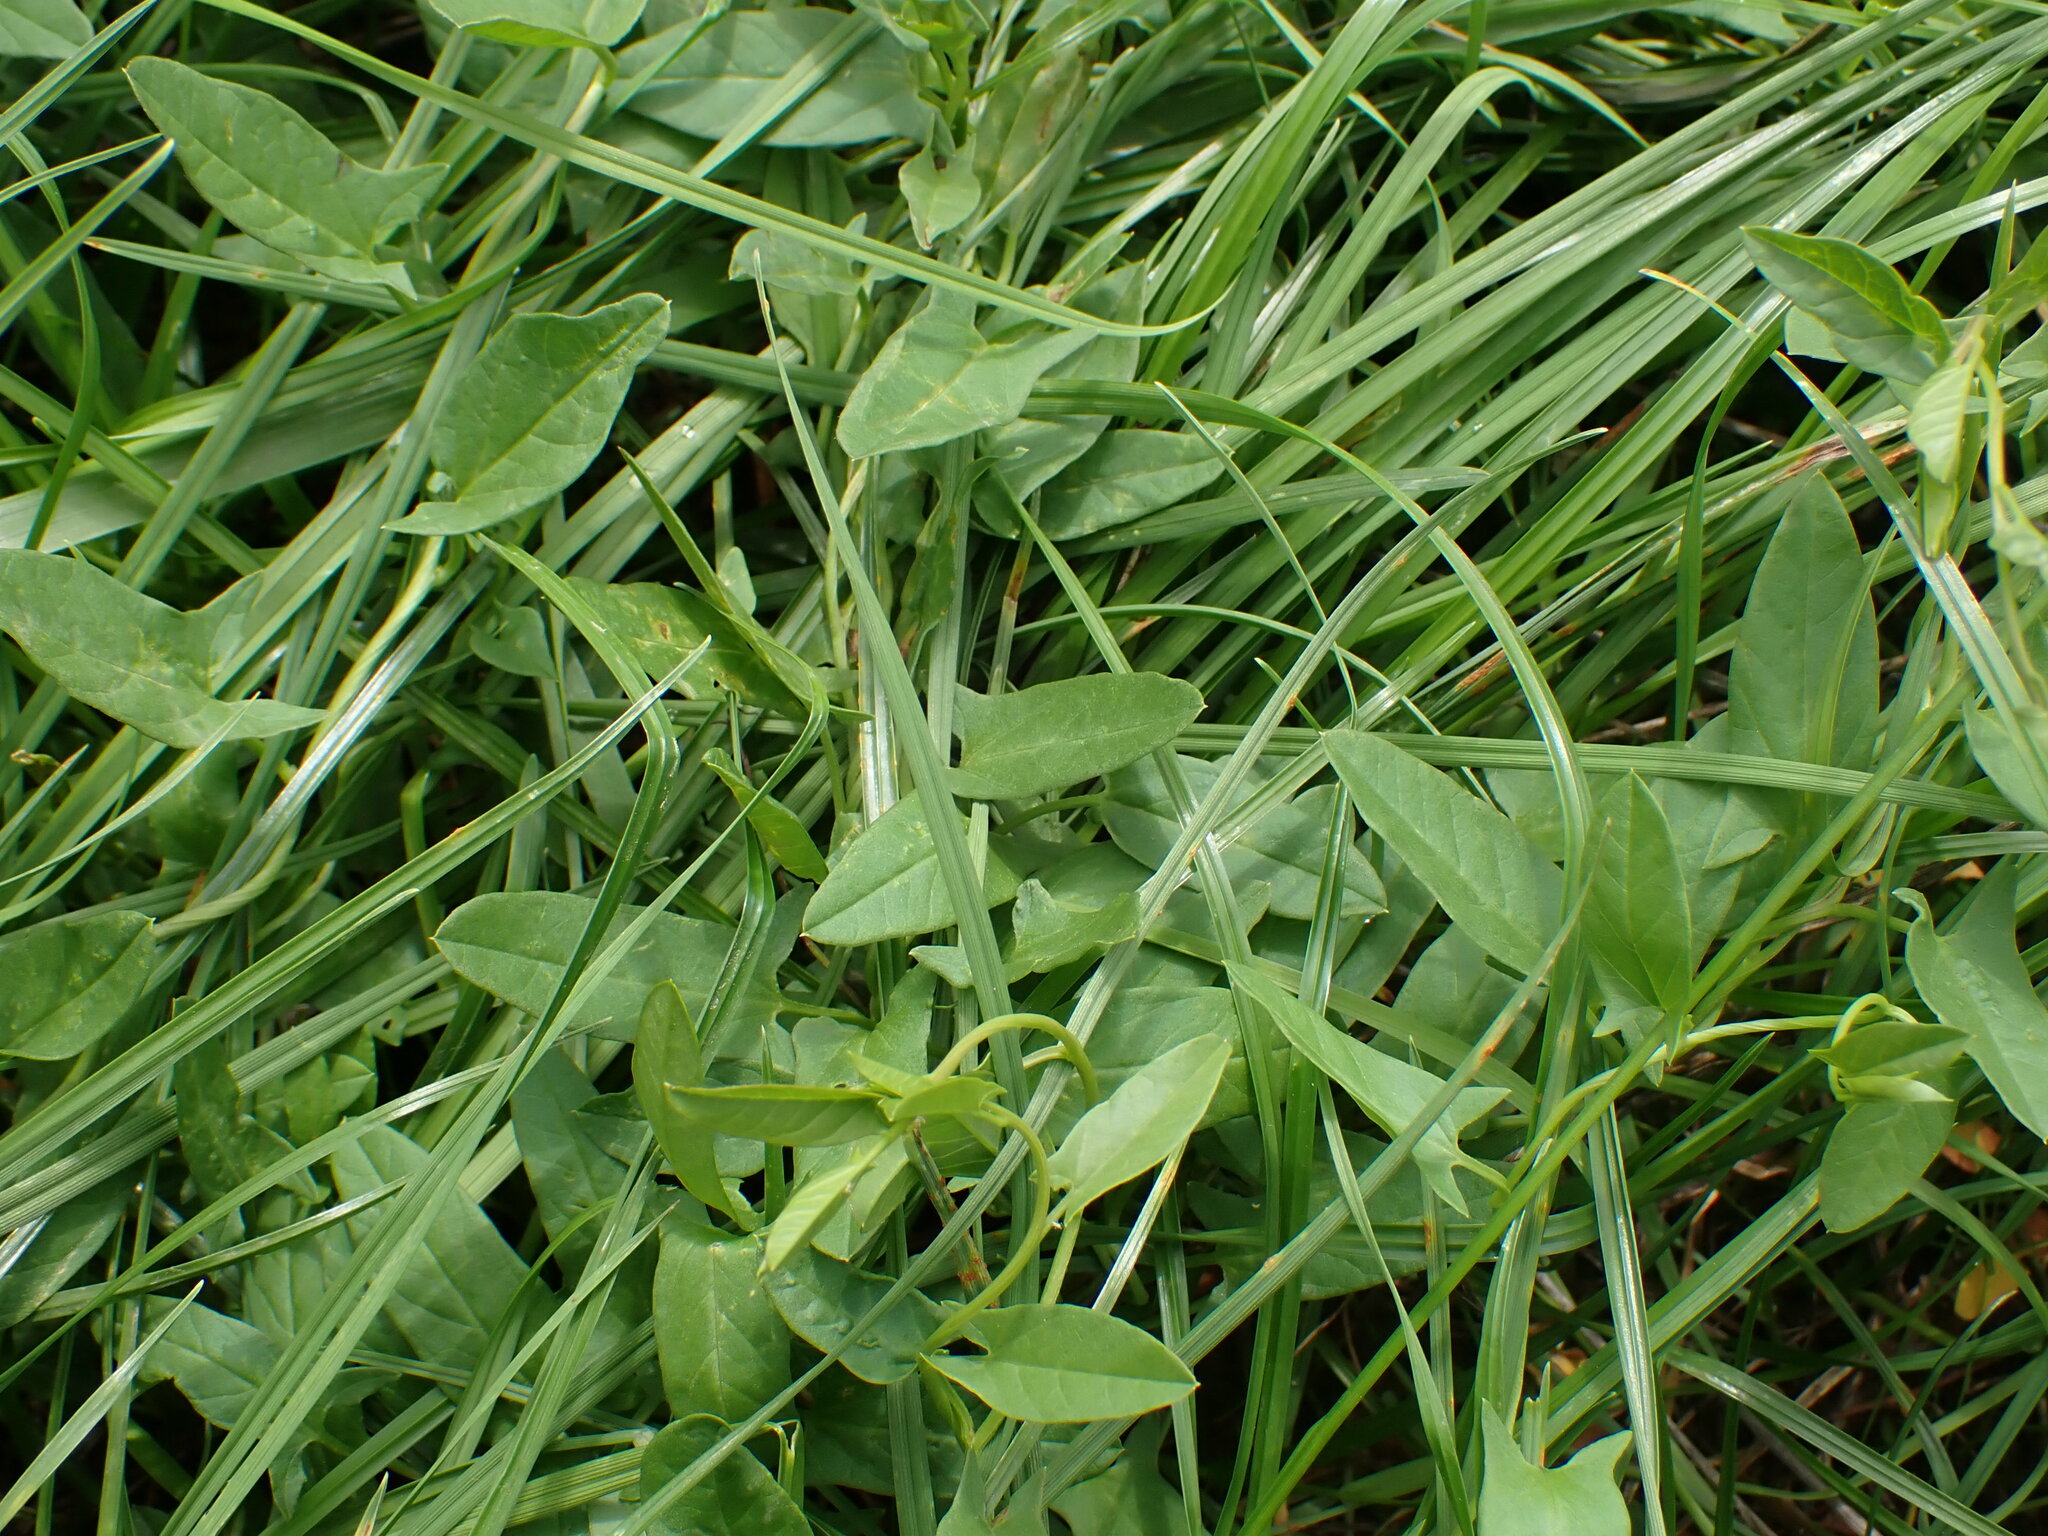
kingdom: Plantae
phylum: Tracheophyta
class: Magnoliopsida
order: Solanales
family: Convolvulaceae
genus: Convolvulus
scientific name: Convolvulus arvensis
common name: Field bindweed
